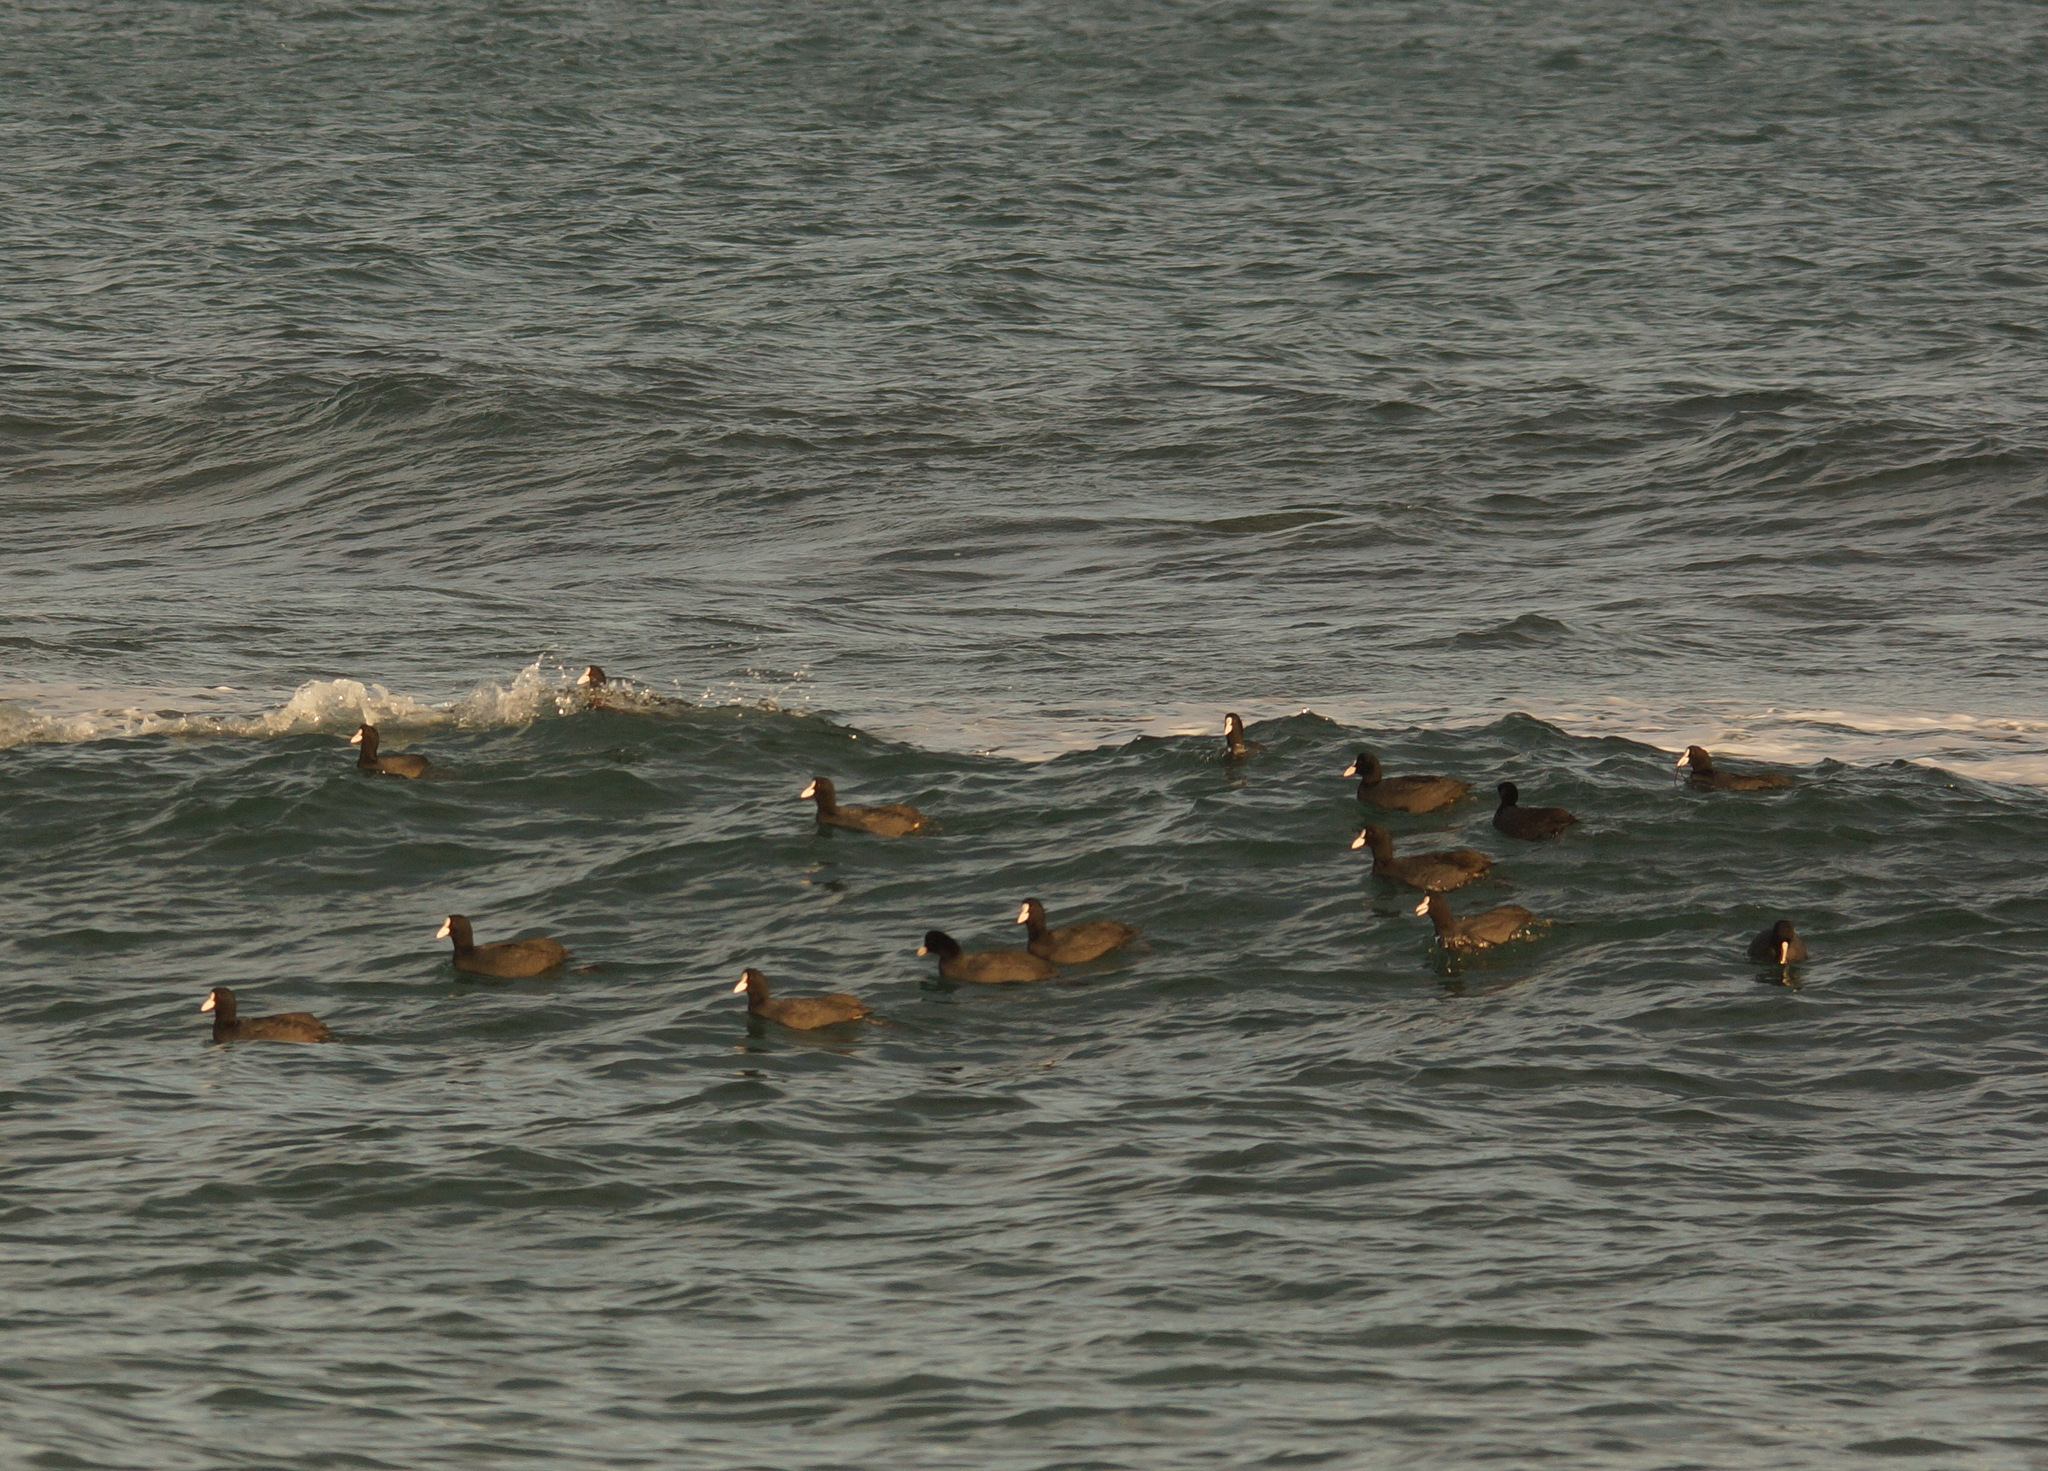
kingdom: Animalia
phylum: Chordata
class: Aves
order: Gruiformes
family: Rallidae
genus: Fulica
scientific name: Fulica atra
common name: Eurasian coot
